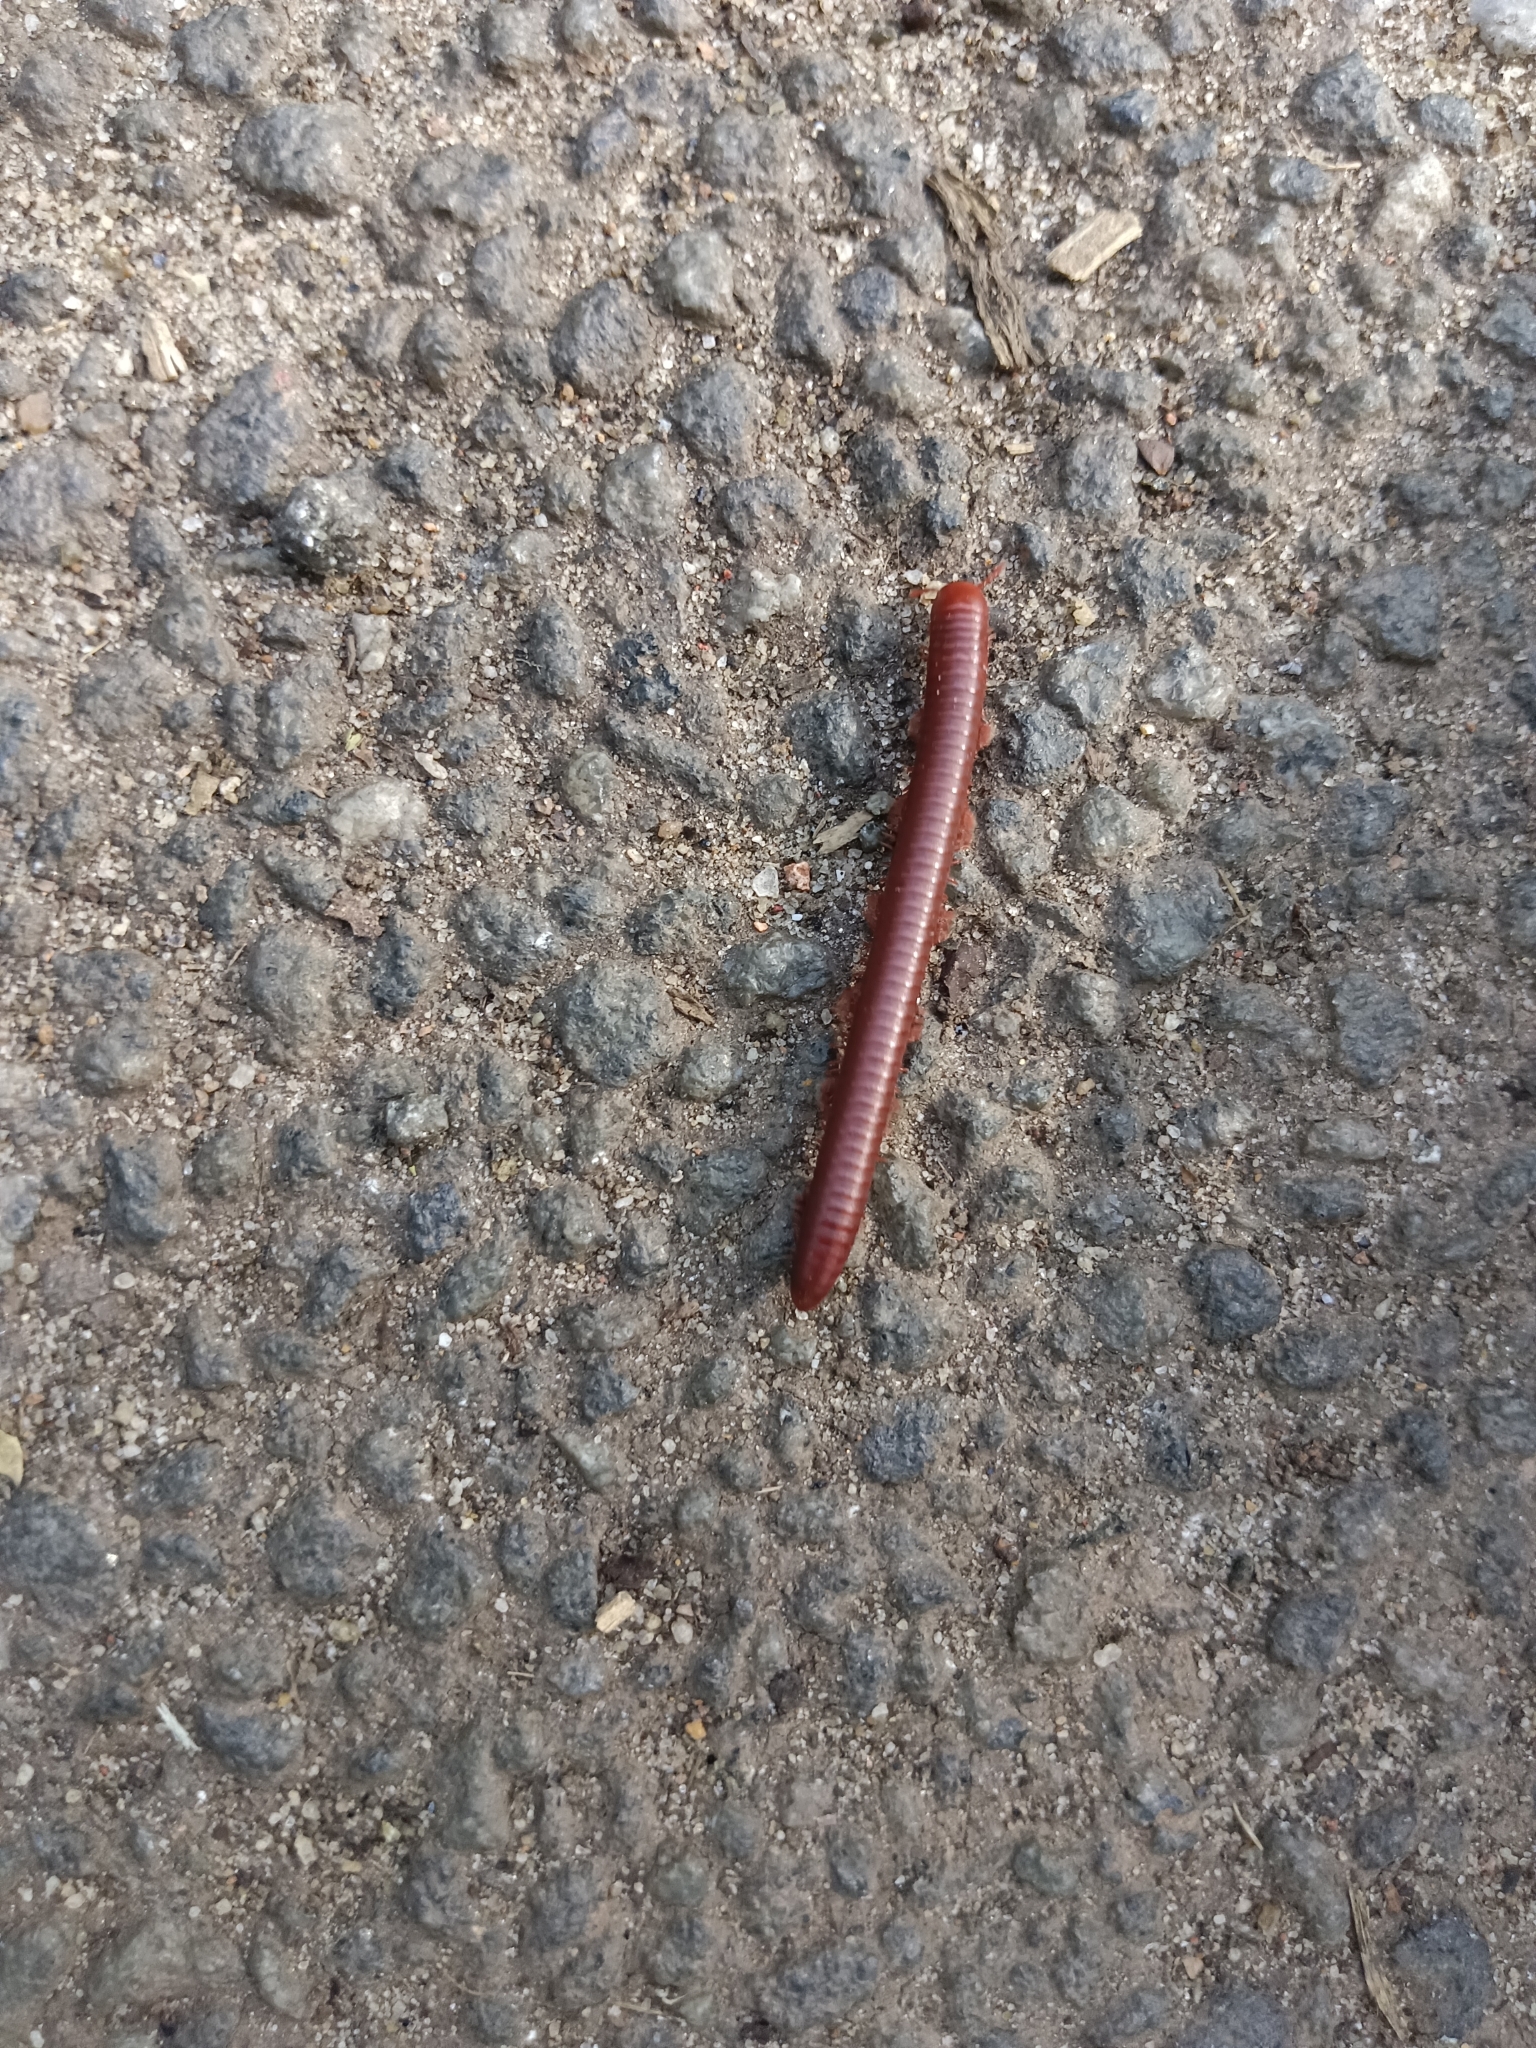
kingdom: Animalia
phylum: Arthropoda
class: Diplopoda
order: Spirobolida
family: Pachybolidae
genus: Trigoniulus
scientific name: Trigoniulus corallinus
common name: Millipede
